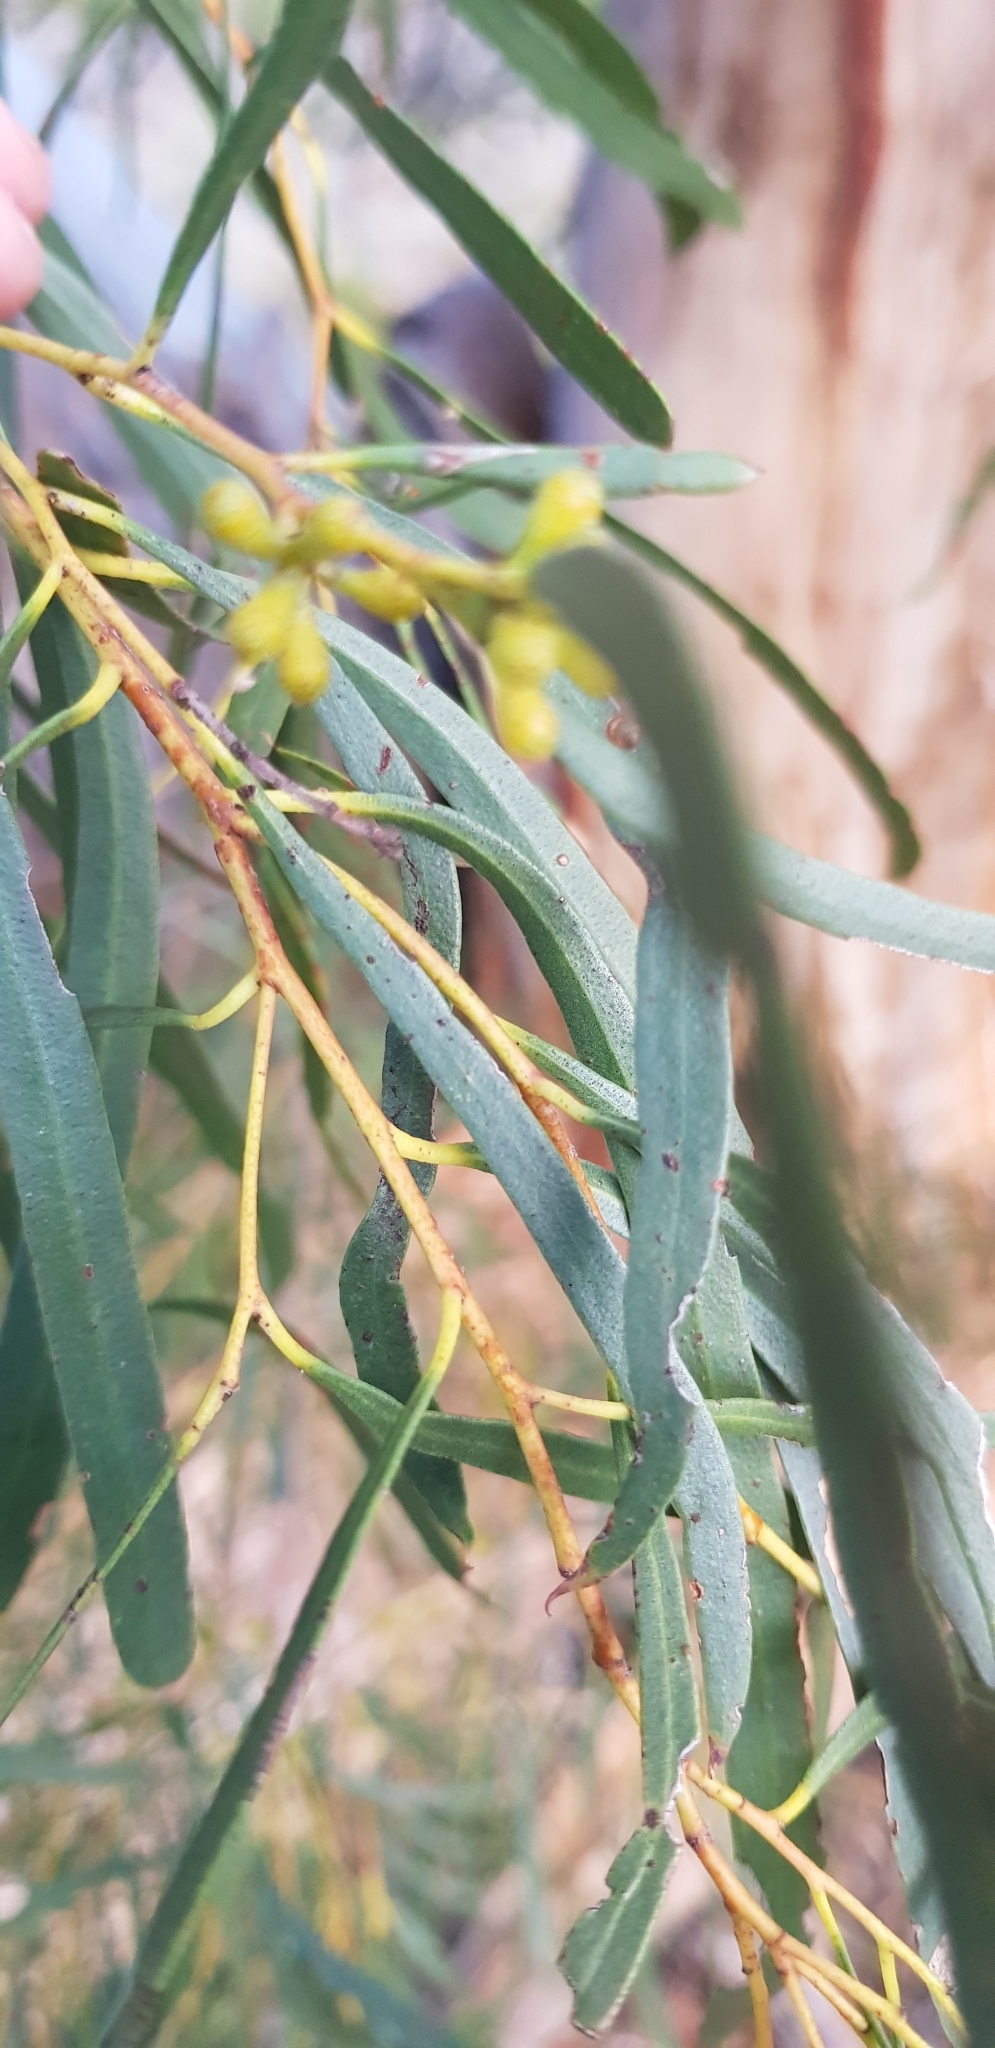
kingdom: Plantae
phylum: Tracheophyta
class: Magnoliopsida
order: Myrtales
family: Myrtaceae
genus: Eucalyptus
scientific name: Eucalyptus pulchella
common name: White peppermint
